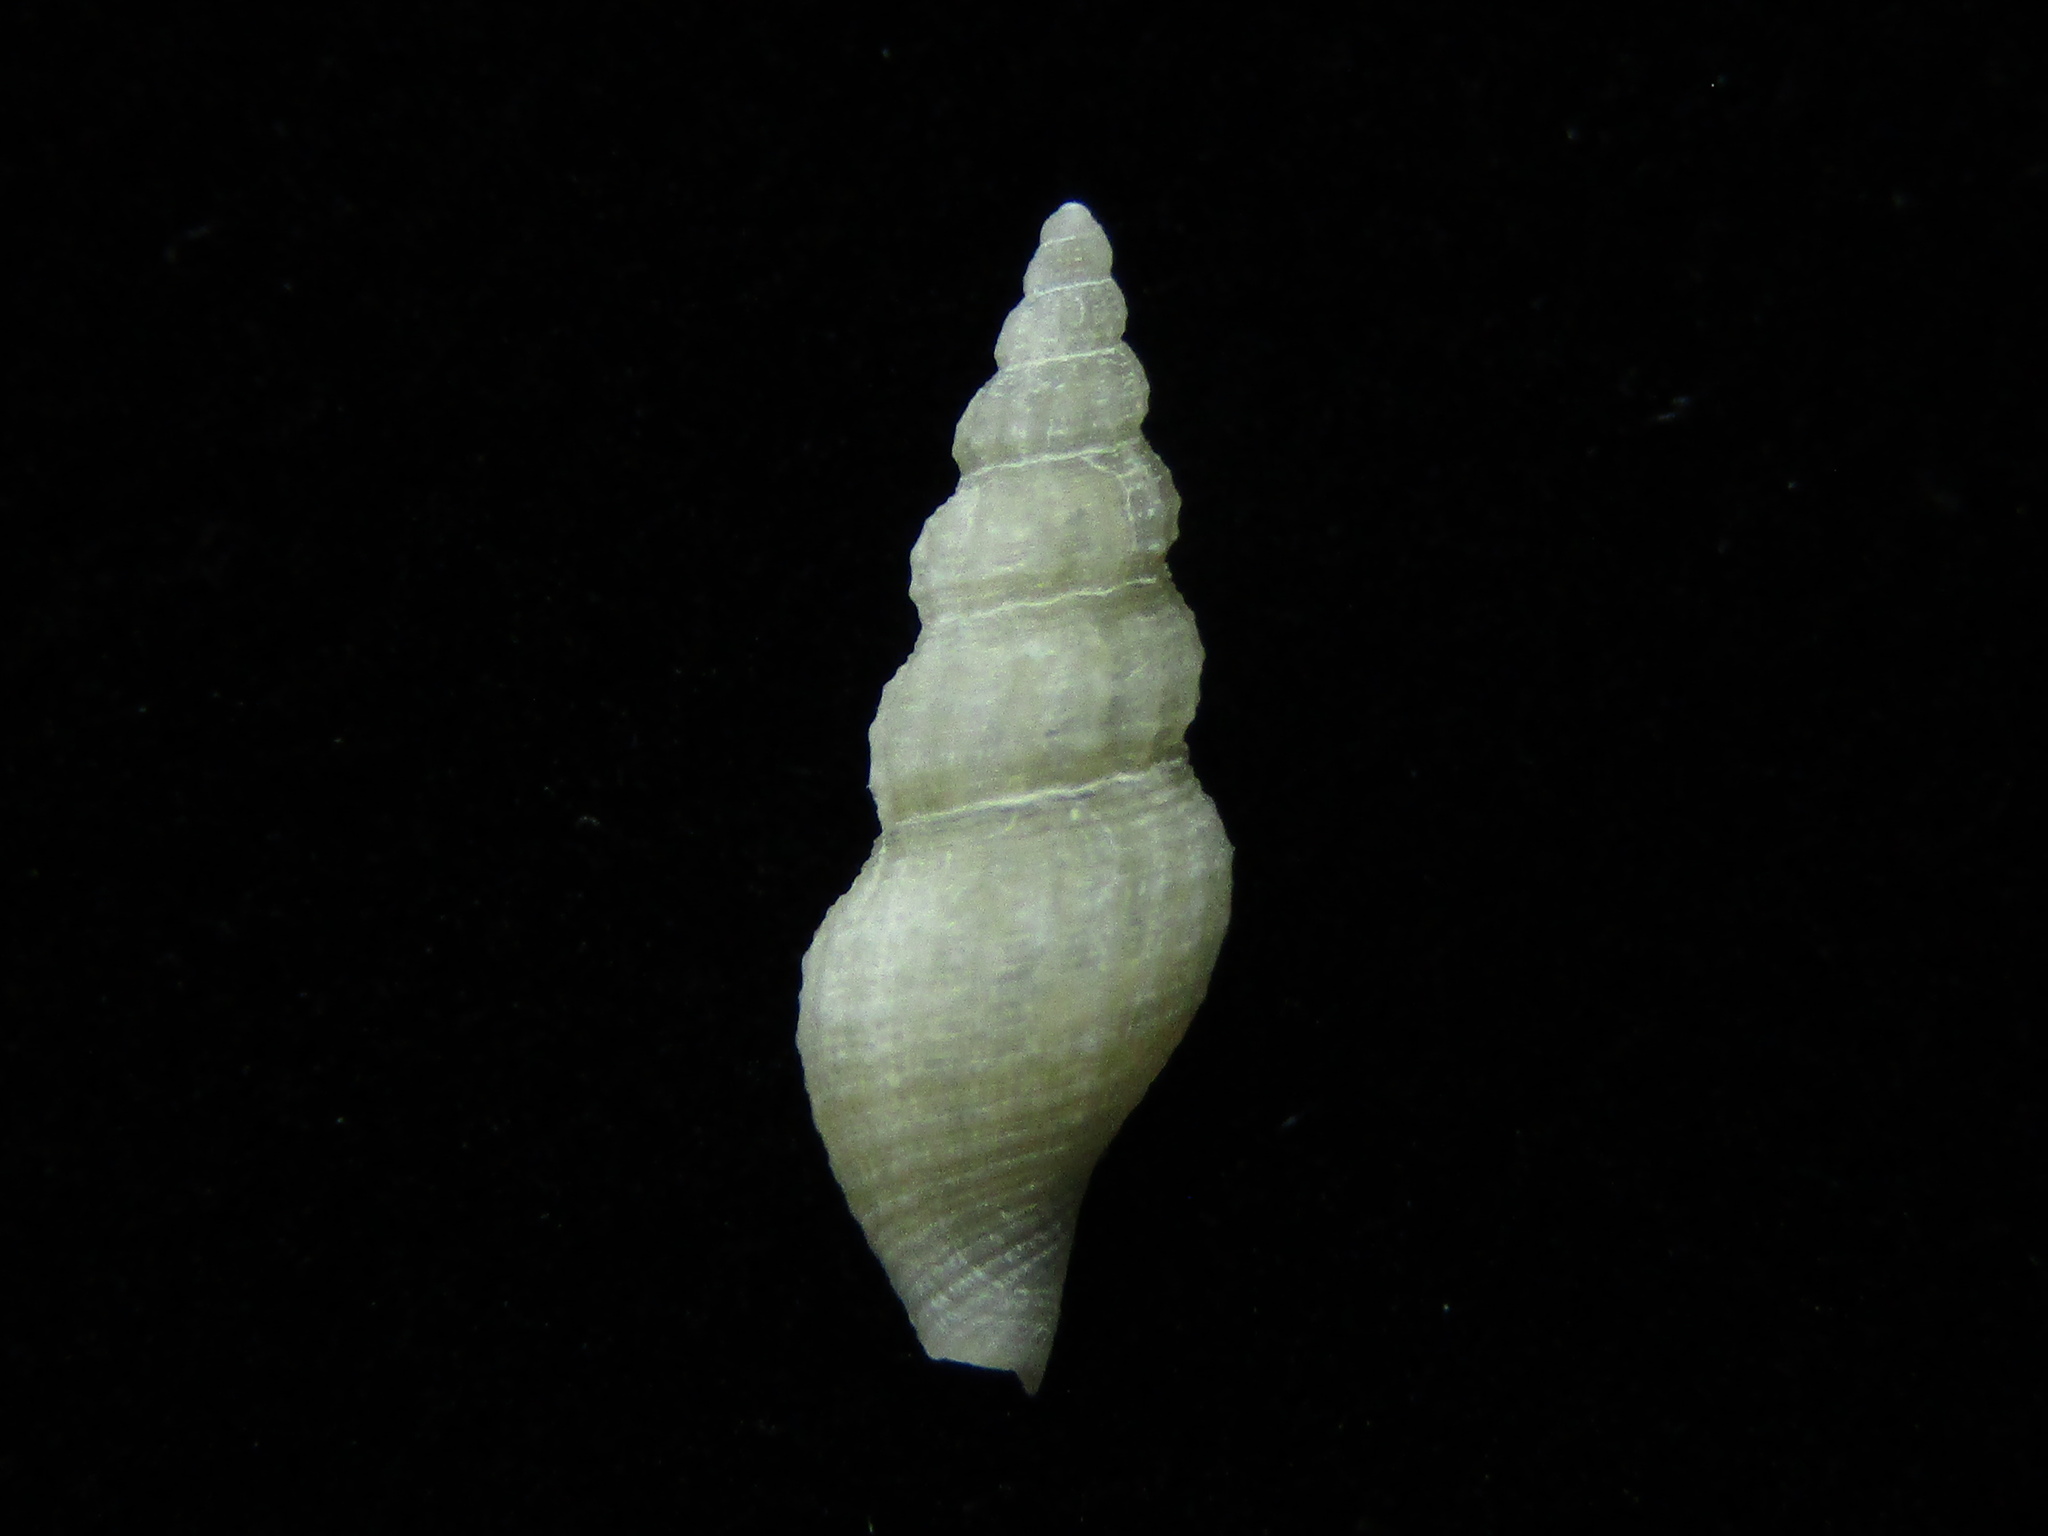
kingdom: Animalia
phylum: Mollusca
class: Gastropoda
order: Neogastropoda
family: Mangeliidae
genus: Neoguraleus
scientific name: Neoguraleus amoenus
